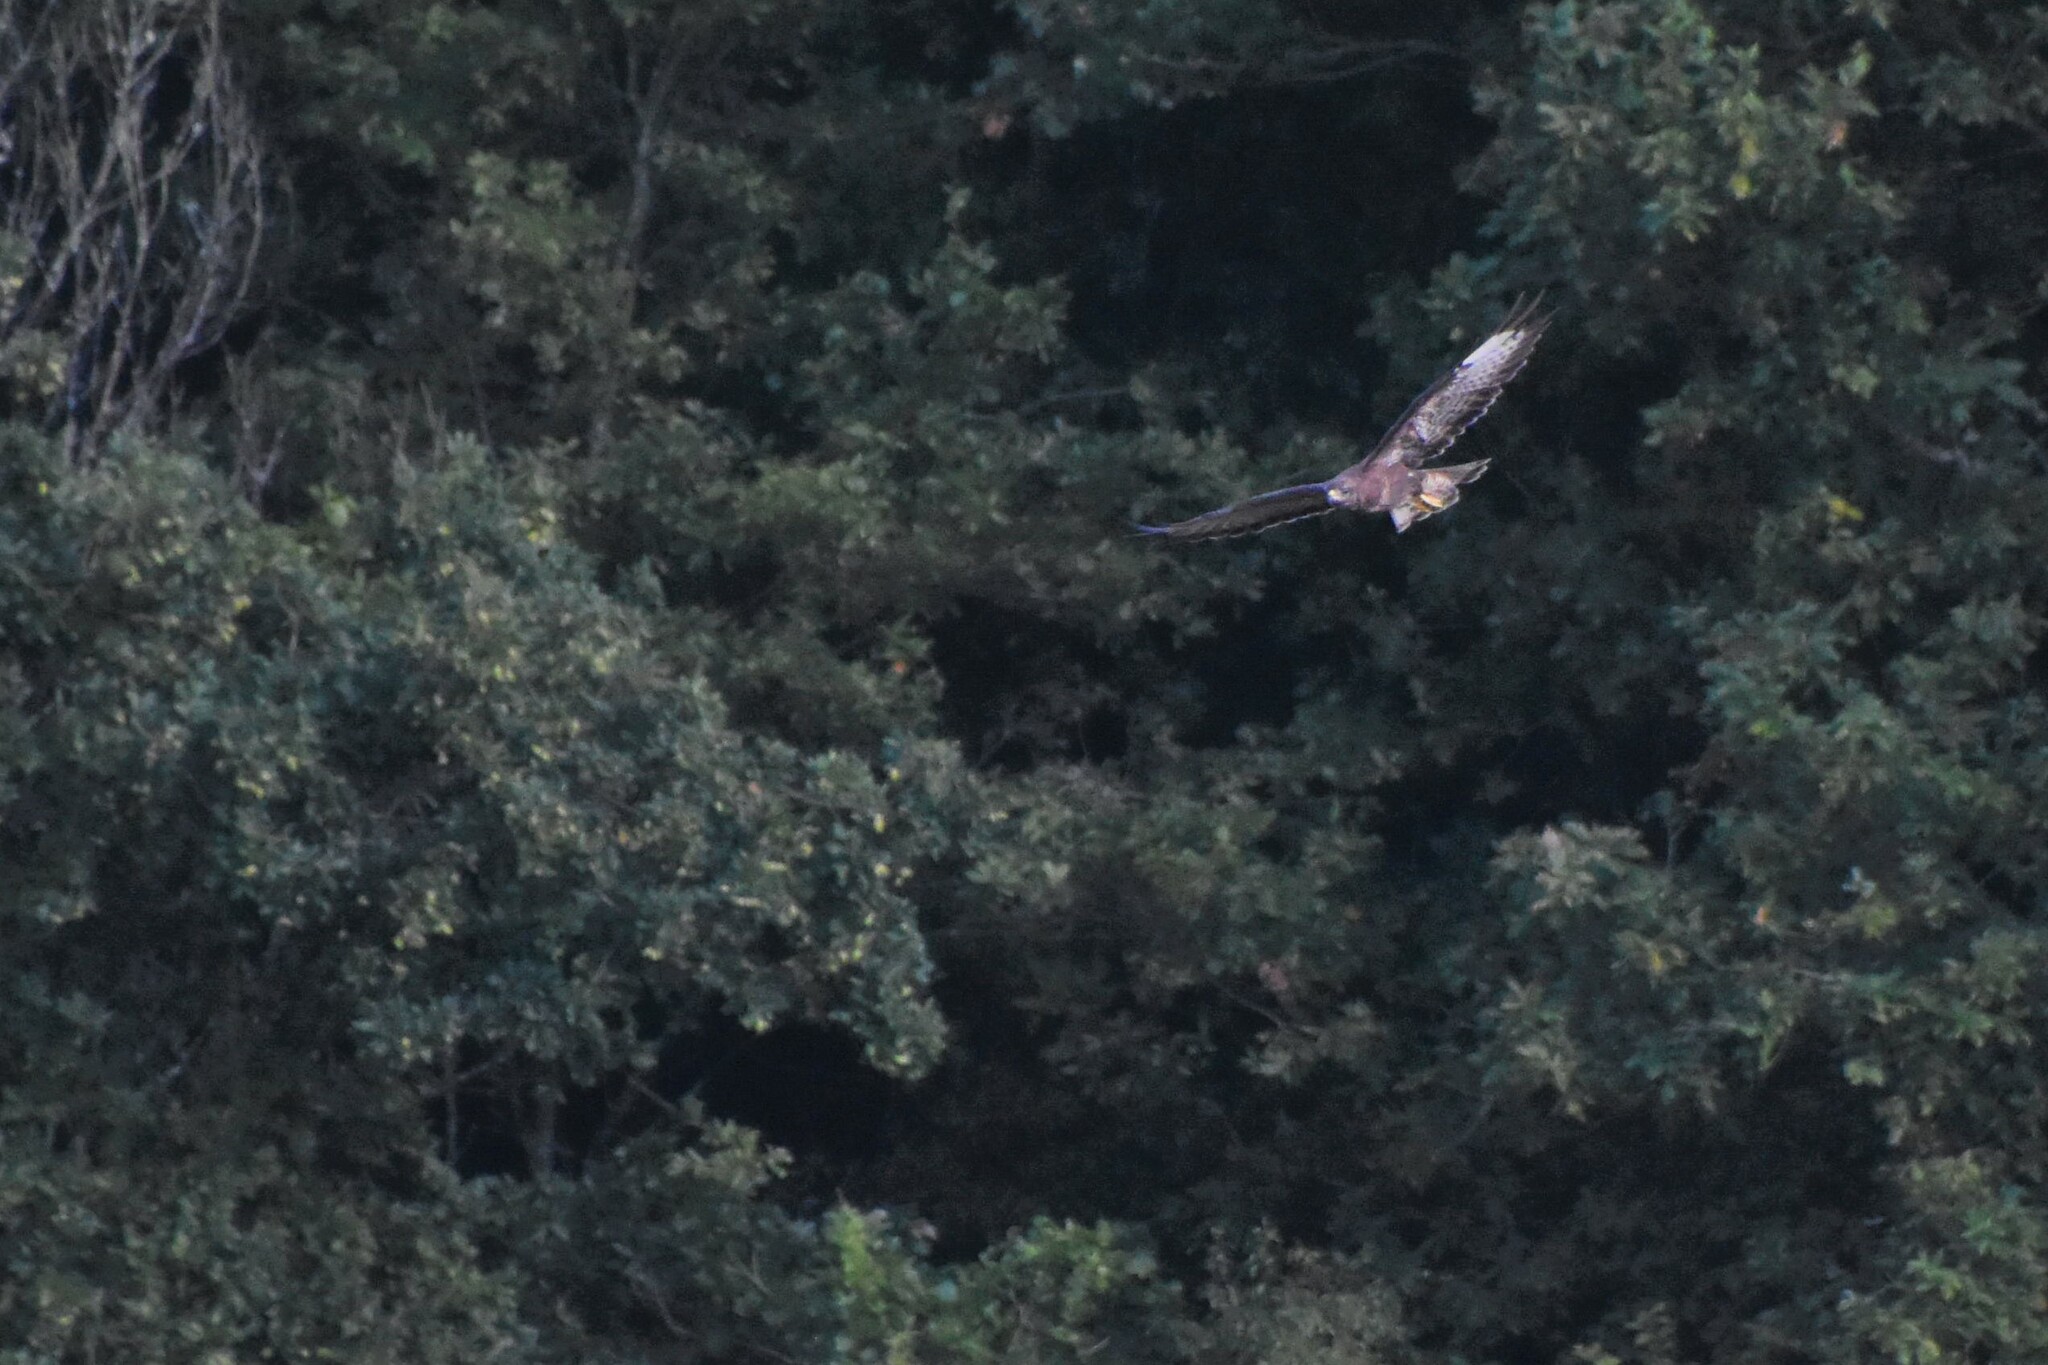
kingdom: Animalia
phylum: Chordata
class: Aves
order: Accipitriformes
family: Accipitridae
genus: Buteo
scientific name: Buteo buteo
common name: Common buzzard
